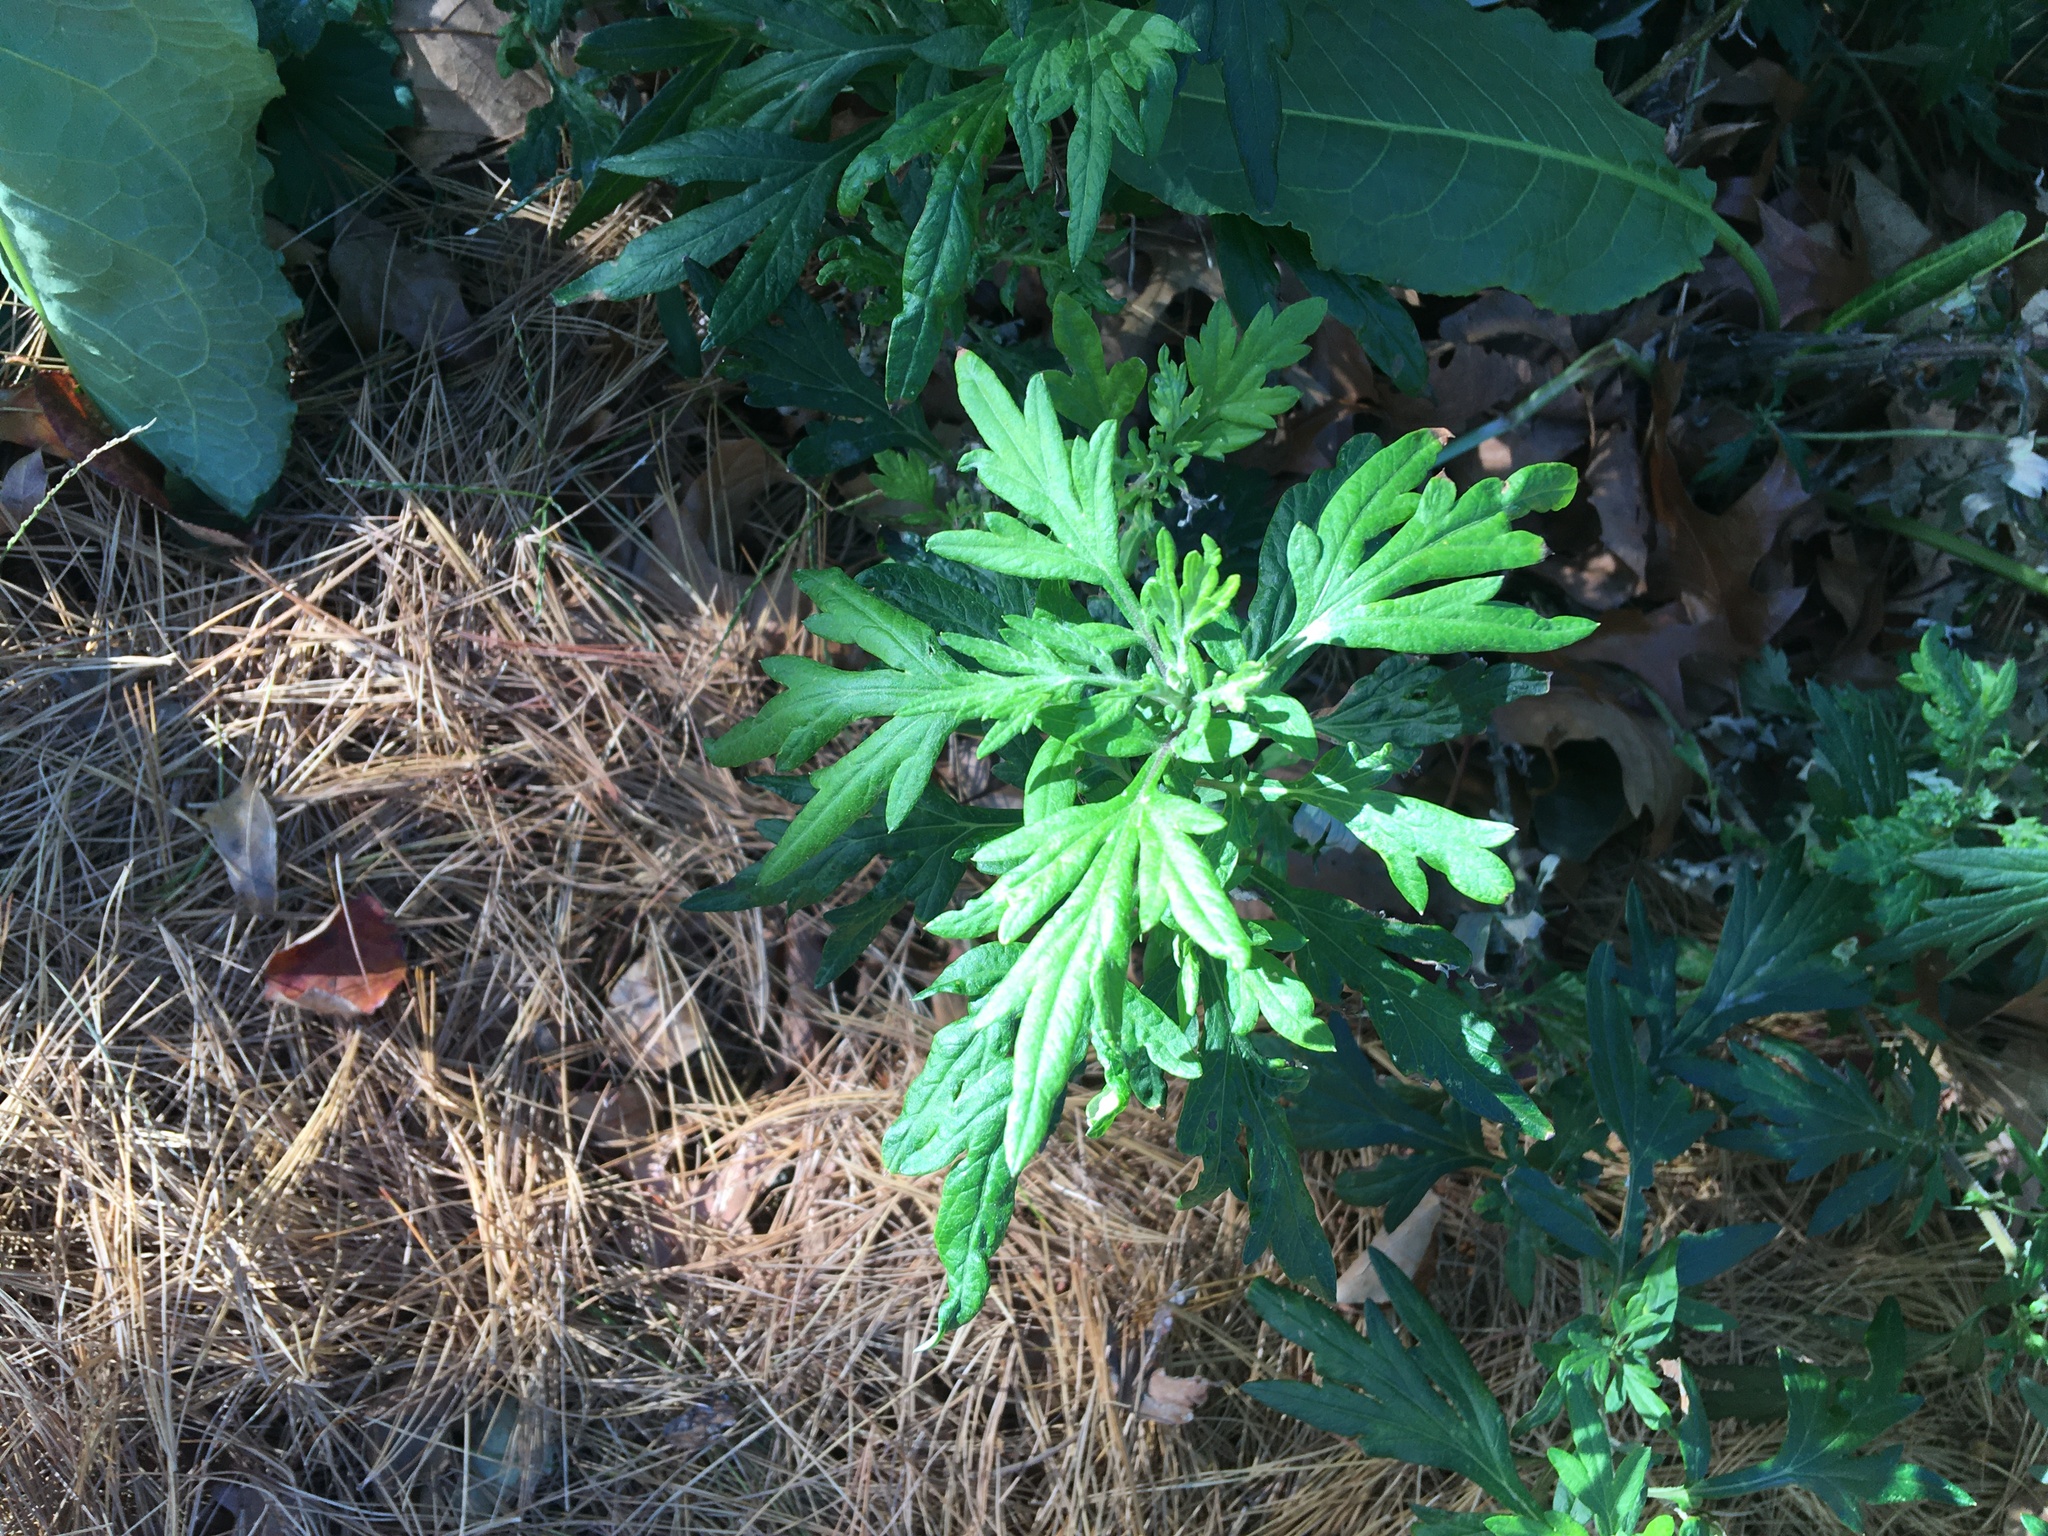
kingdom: Plantae
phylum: Tracheophyta
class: Magnoliopsida
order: Asterales
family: Asteraceae
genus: Artemisia
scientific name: Artemisia vulgaris
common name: Mugwort
